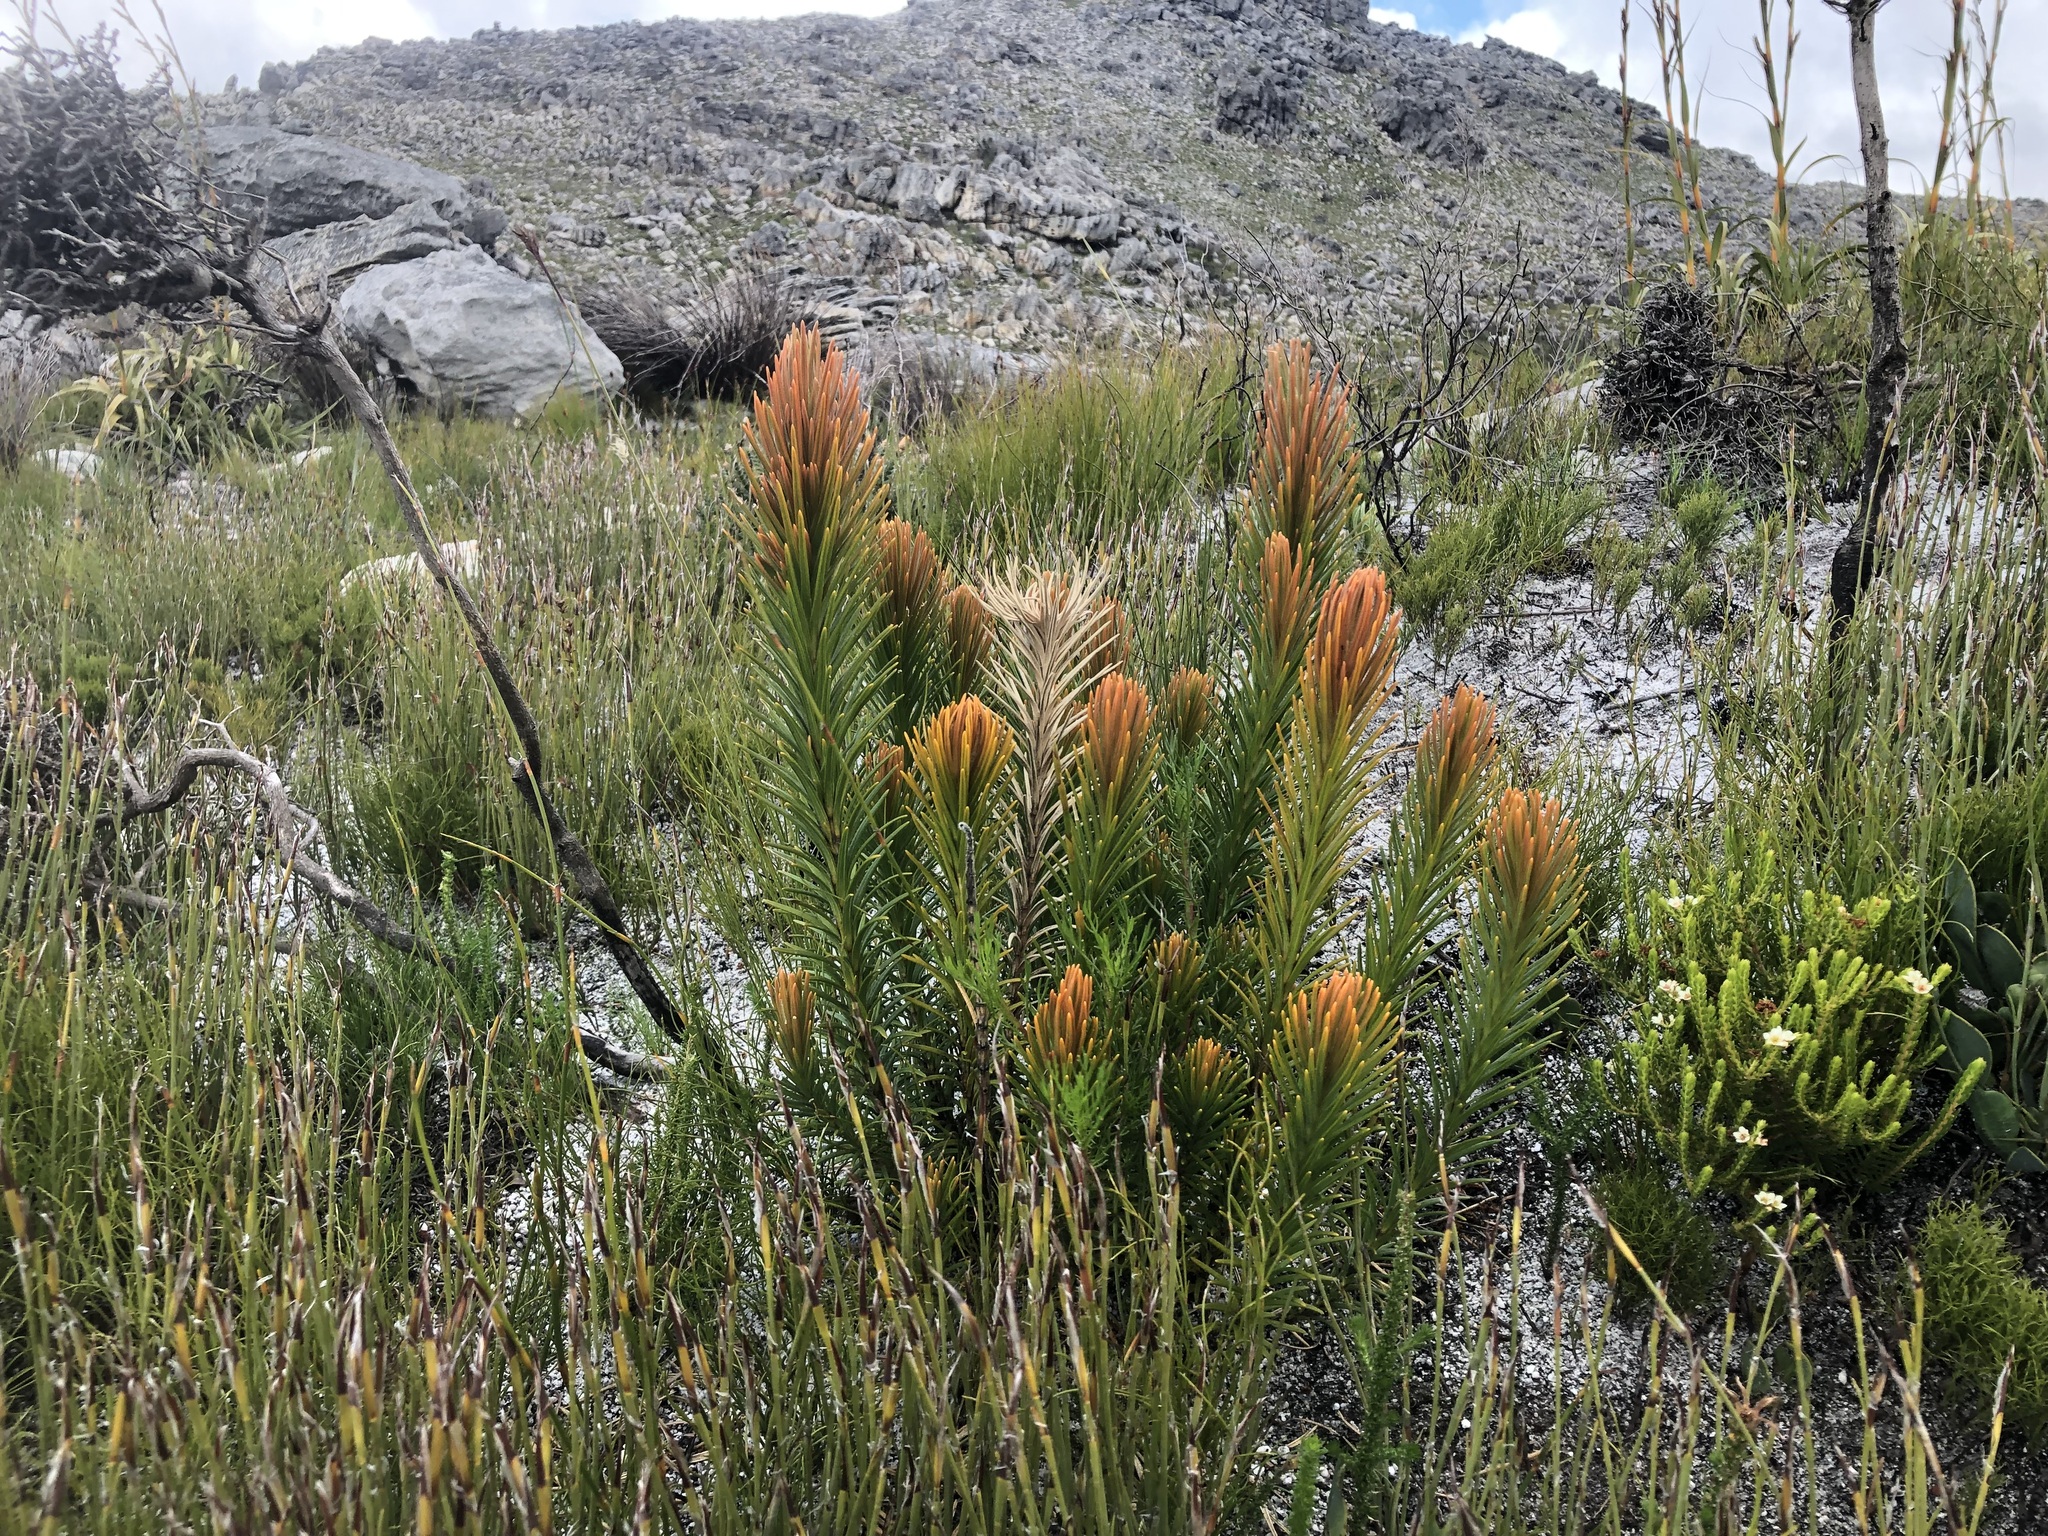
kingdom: Plantae
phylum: Tracheophyta
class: Magnoliopsida
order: Lamiales
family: Stilbaceae
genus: Retzia
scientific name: Retzia capensis
